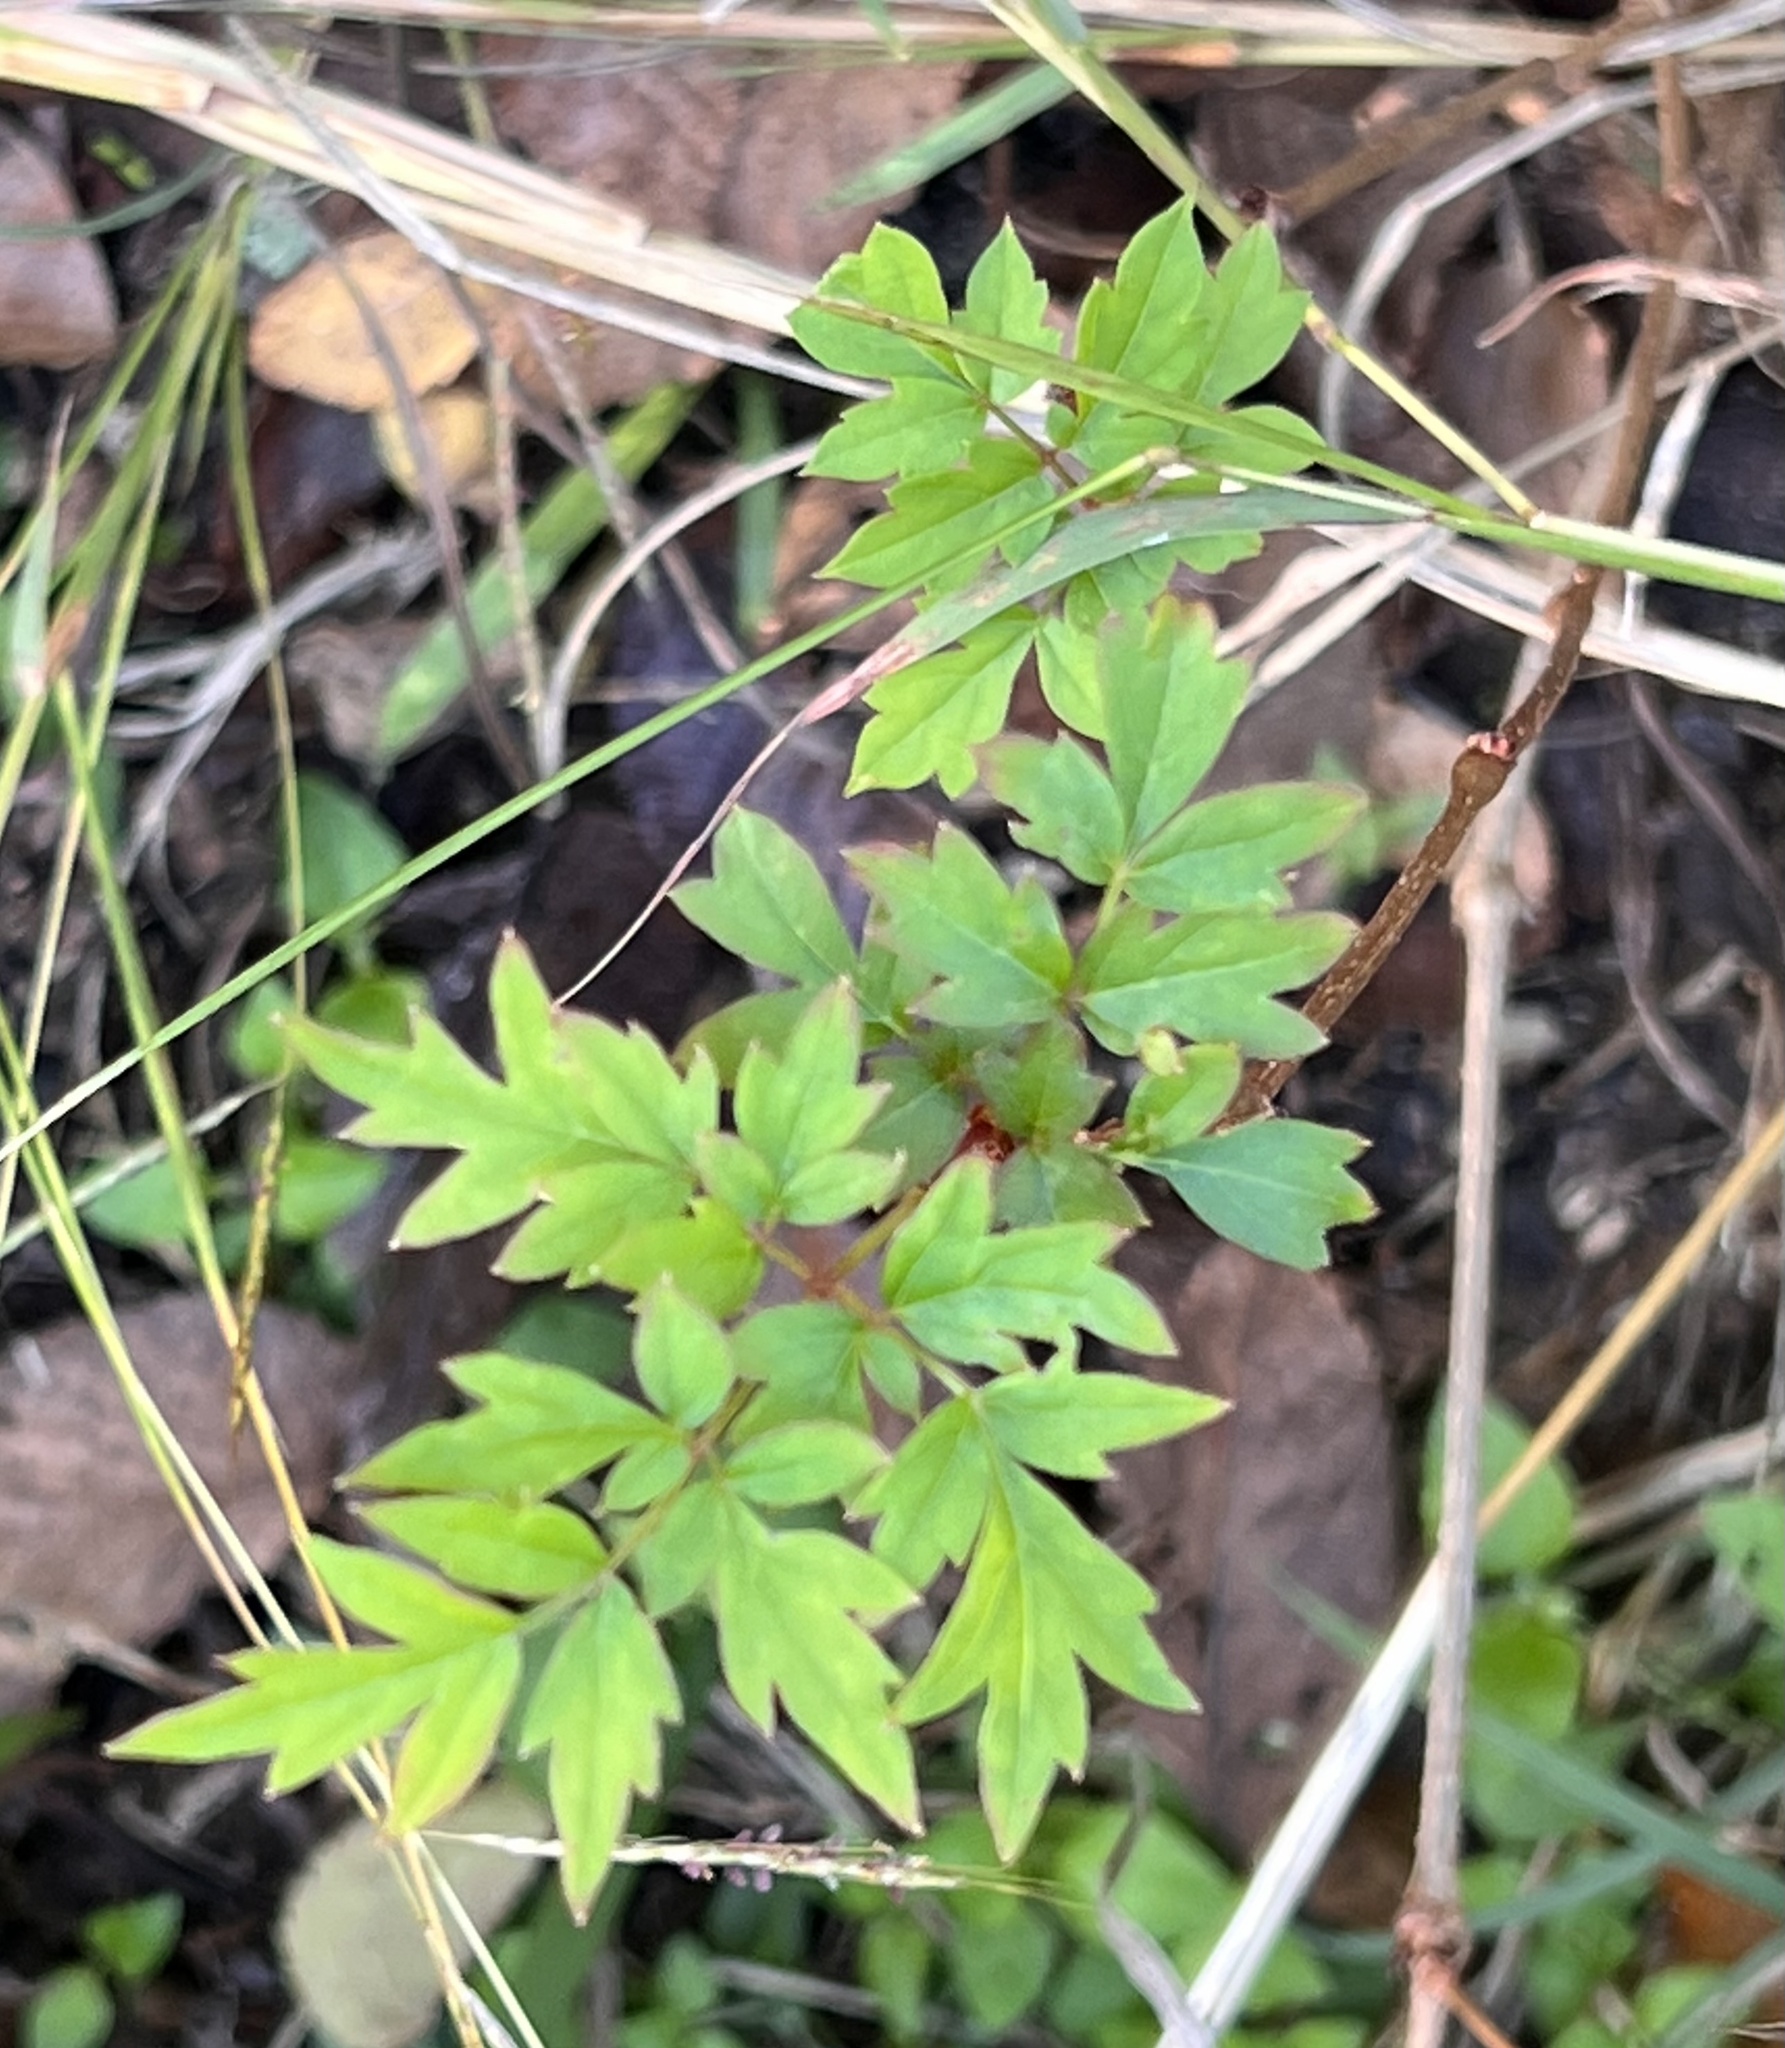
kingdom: Plantae
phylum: Tracheophyta
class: Magnoliopsida
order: Vitales
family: Vitaceae
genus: Nekemias
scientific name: Nekemias arborea
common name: Peppervine
